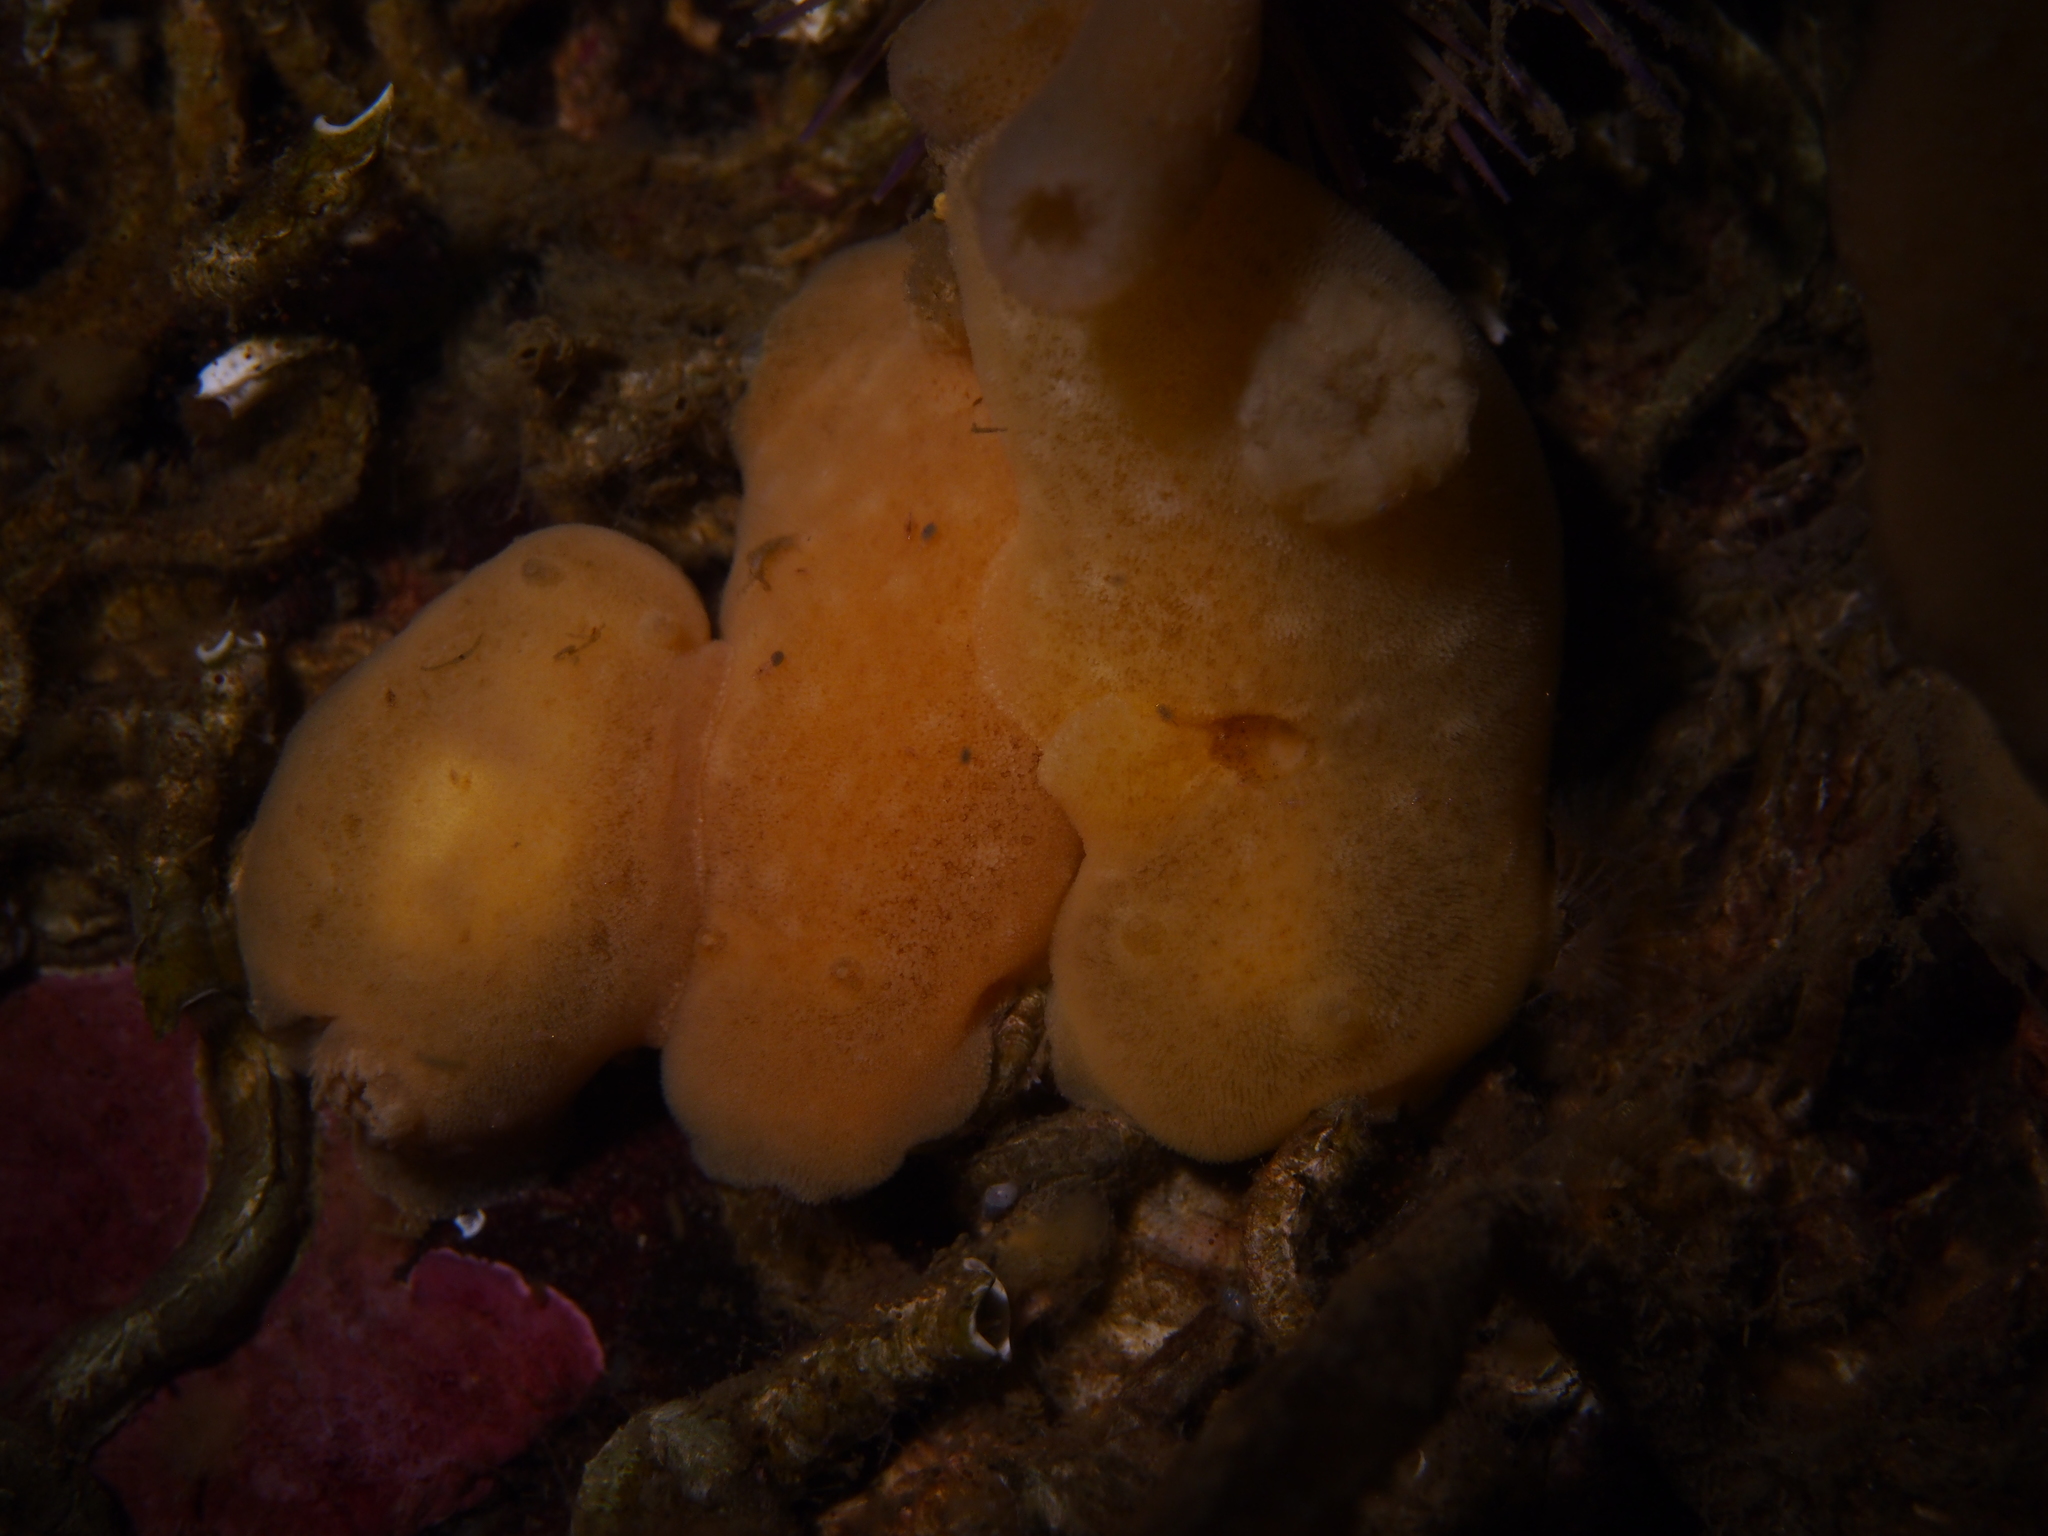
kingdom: Animalia
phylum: Mollusca
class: Gastropoda
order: Nudibranchia
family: Discodorididae
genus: Jorunna
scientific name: Jorunna tomentosa
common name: Grey sea slug
